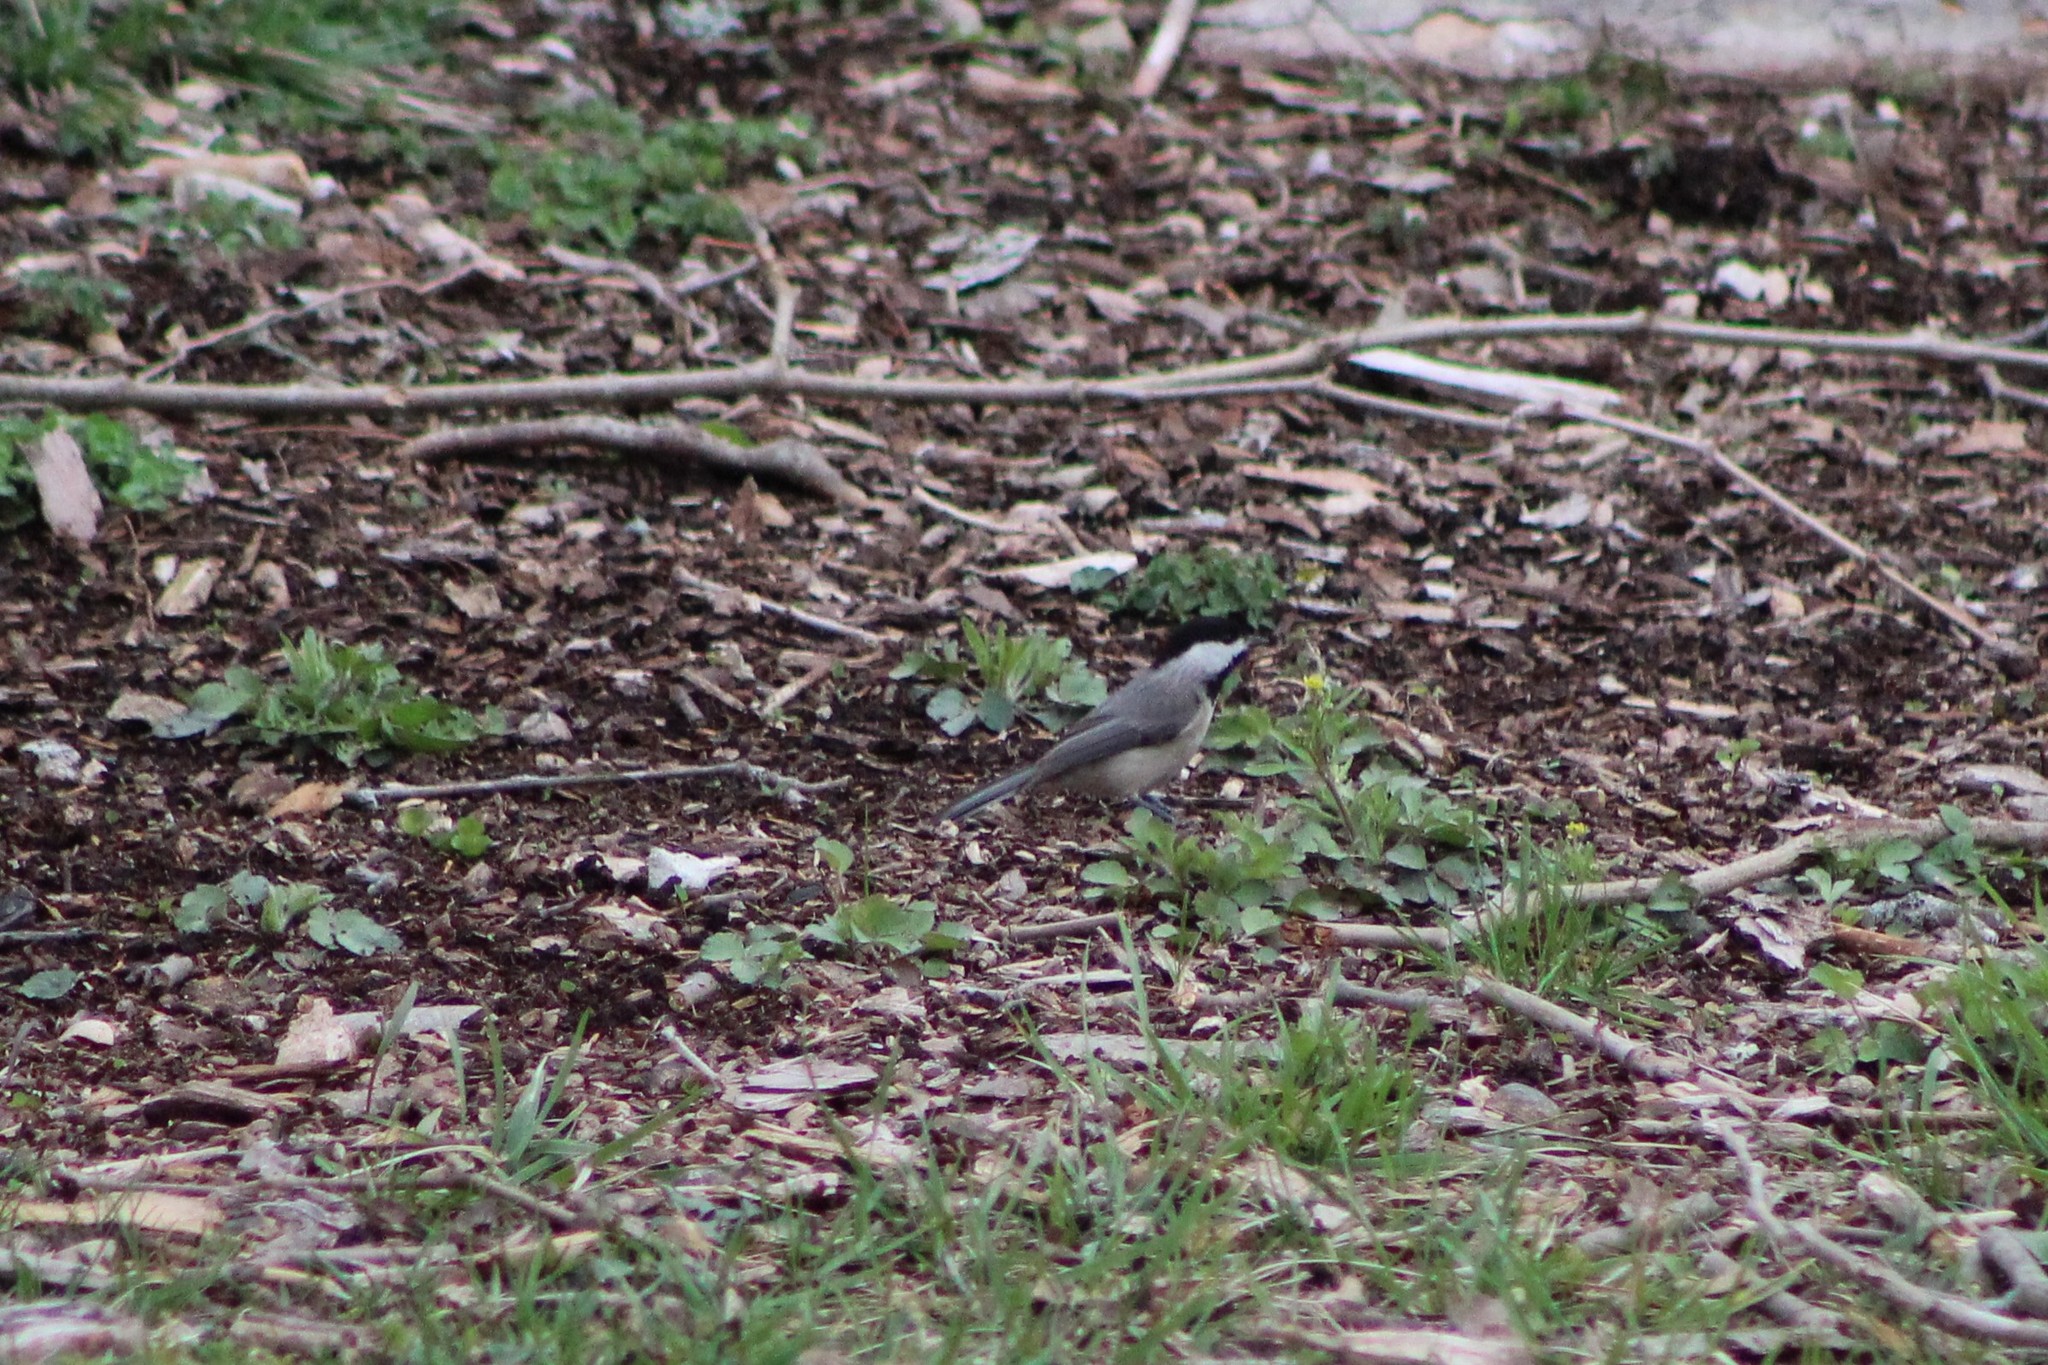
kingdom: Animalia
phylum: Chordata
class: Aves
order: Passeriformes
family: Paridae
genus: Poecile
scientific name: Poecile carolinensis
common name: Carolina chickadee
